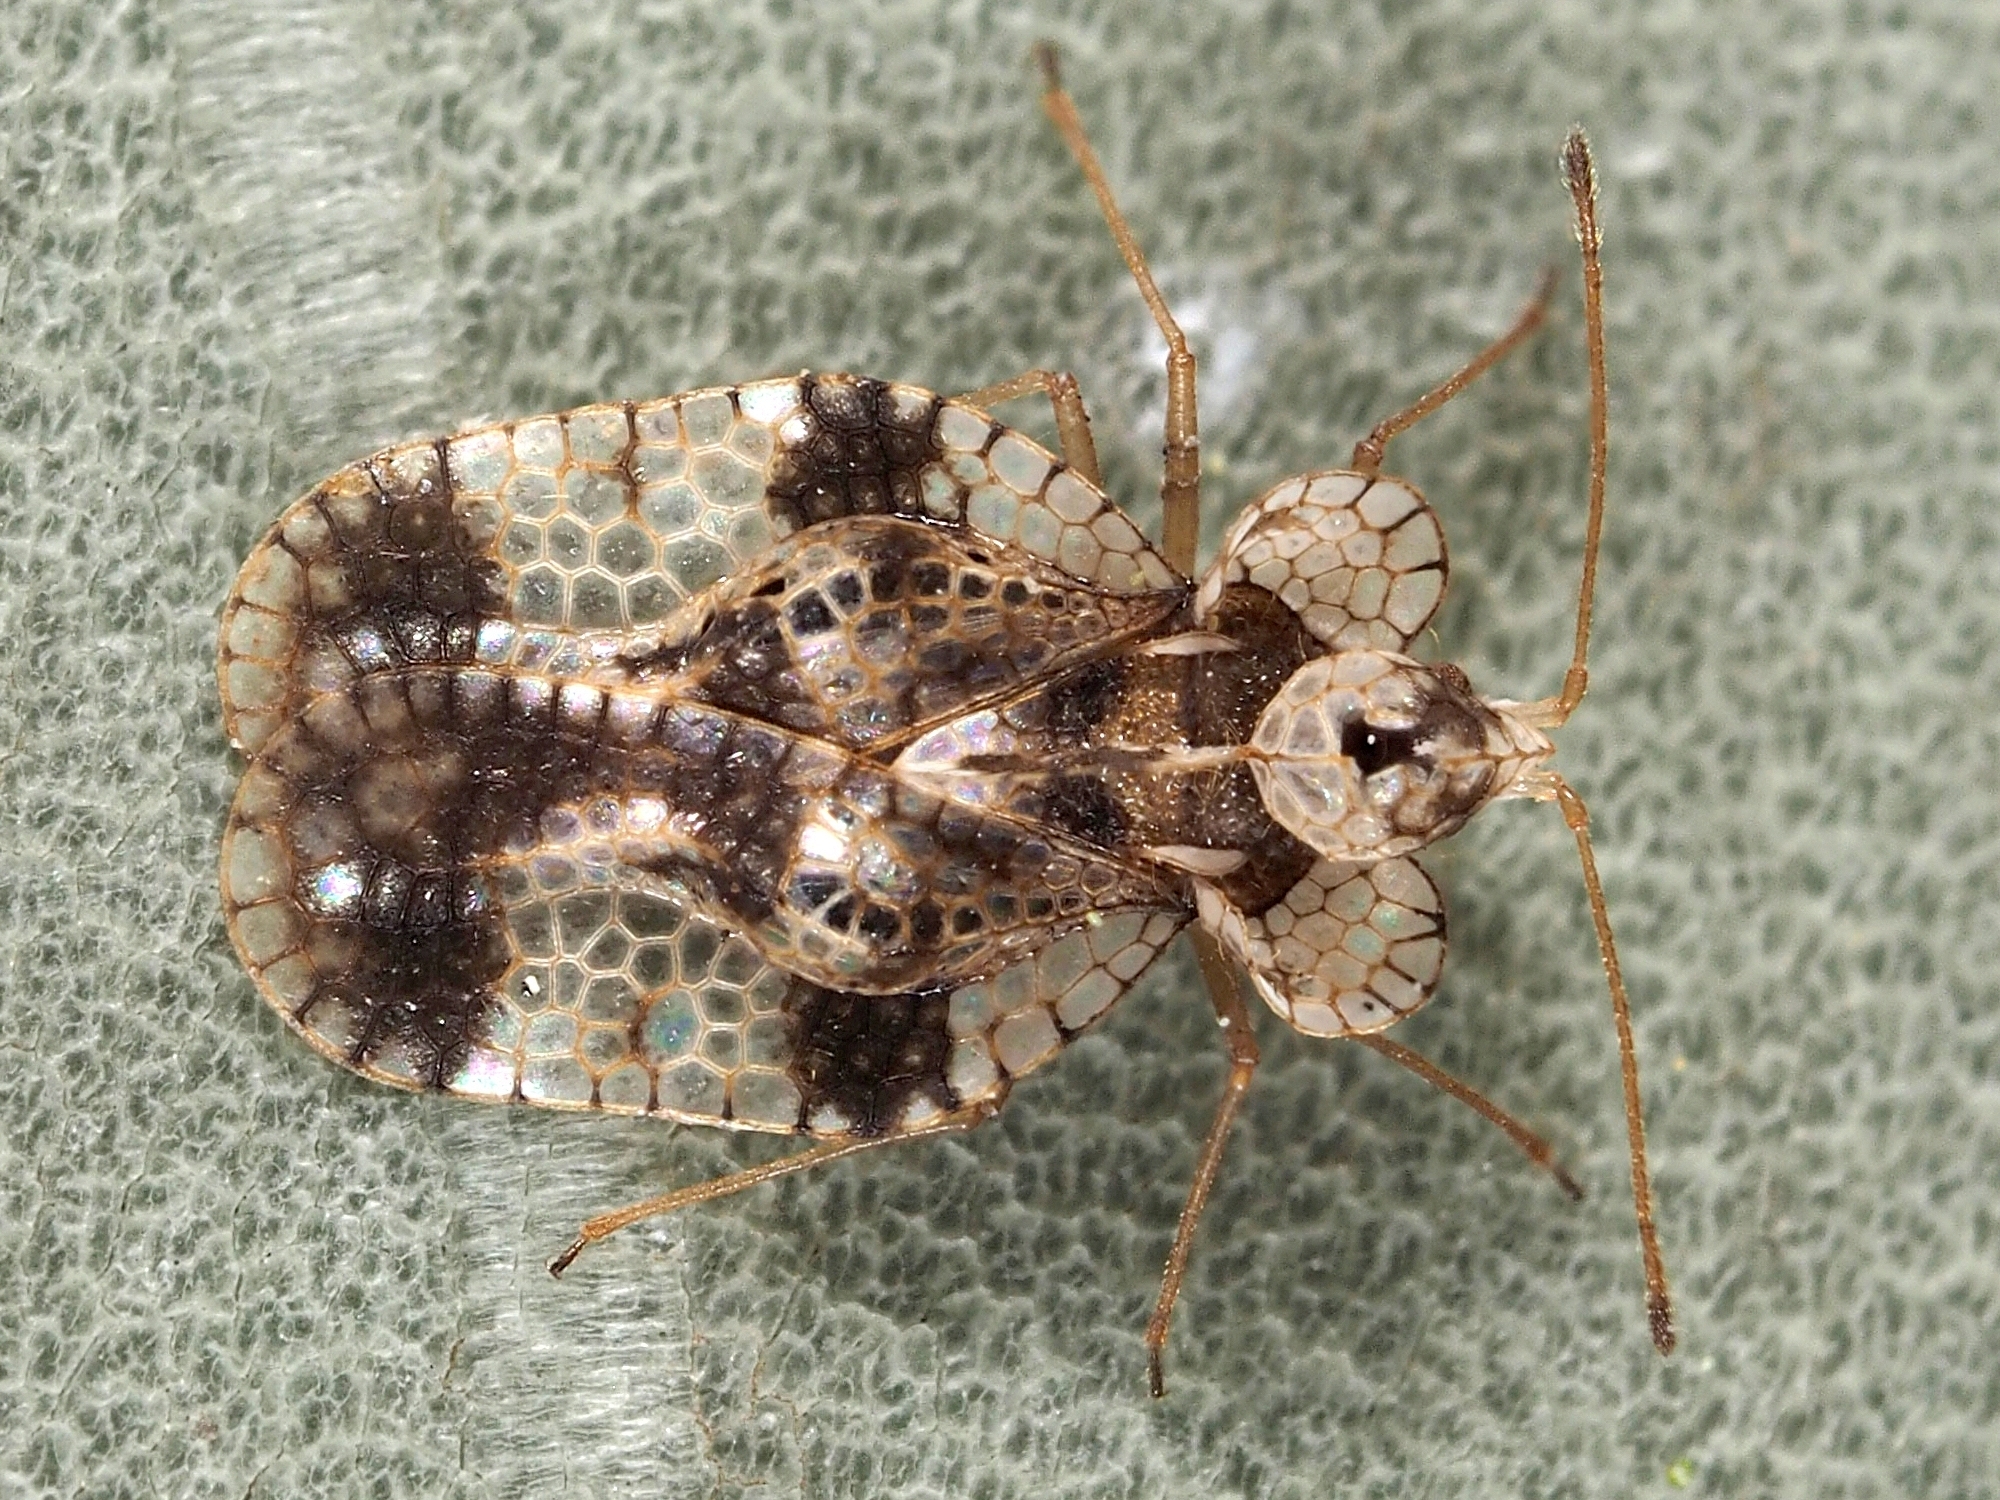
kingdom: Animalia
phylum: Arthropoda
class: Insecta
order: Hemiptera
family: Tingidae
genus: Stephanitis
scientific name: Stephanitis pyri
